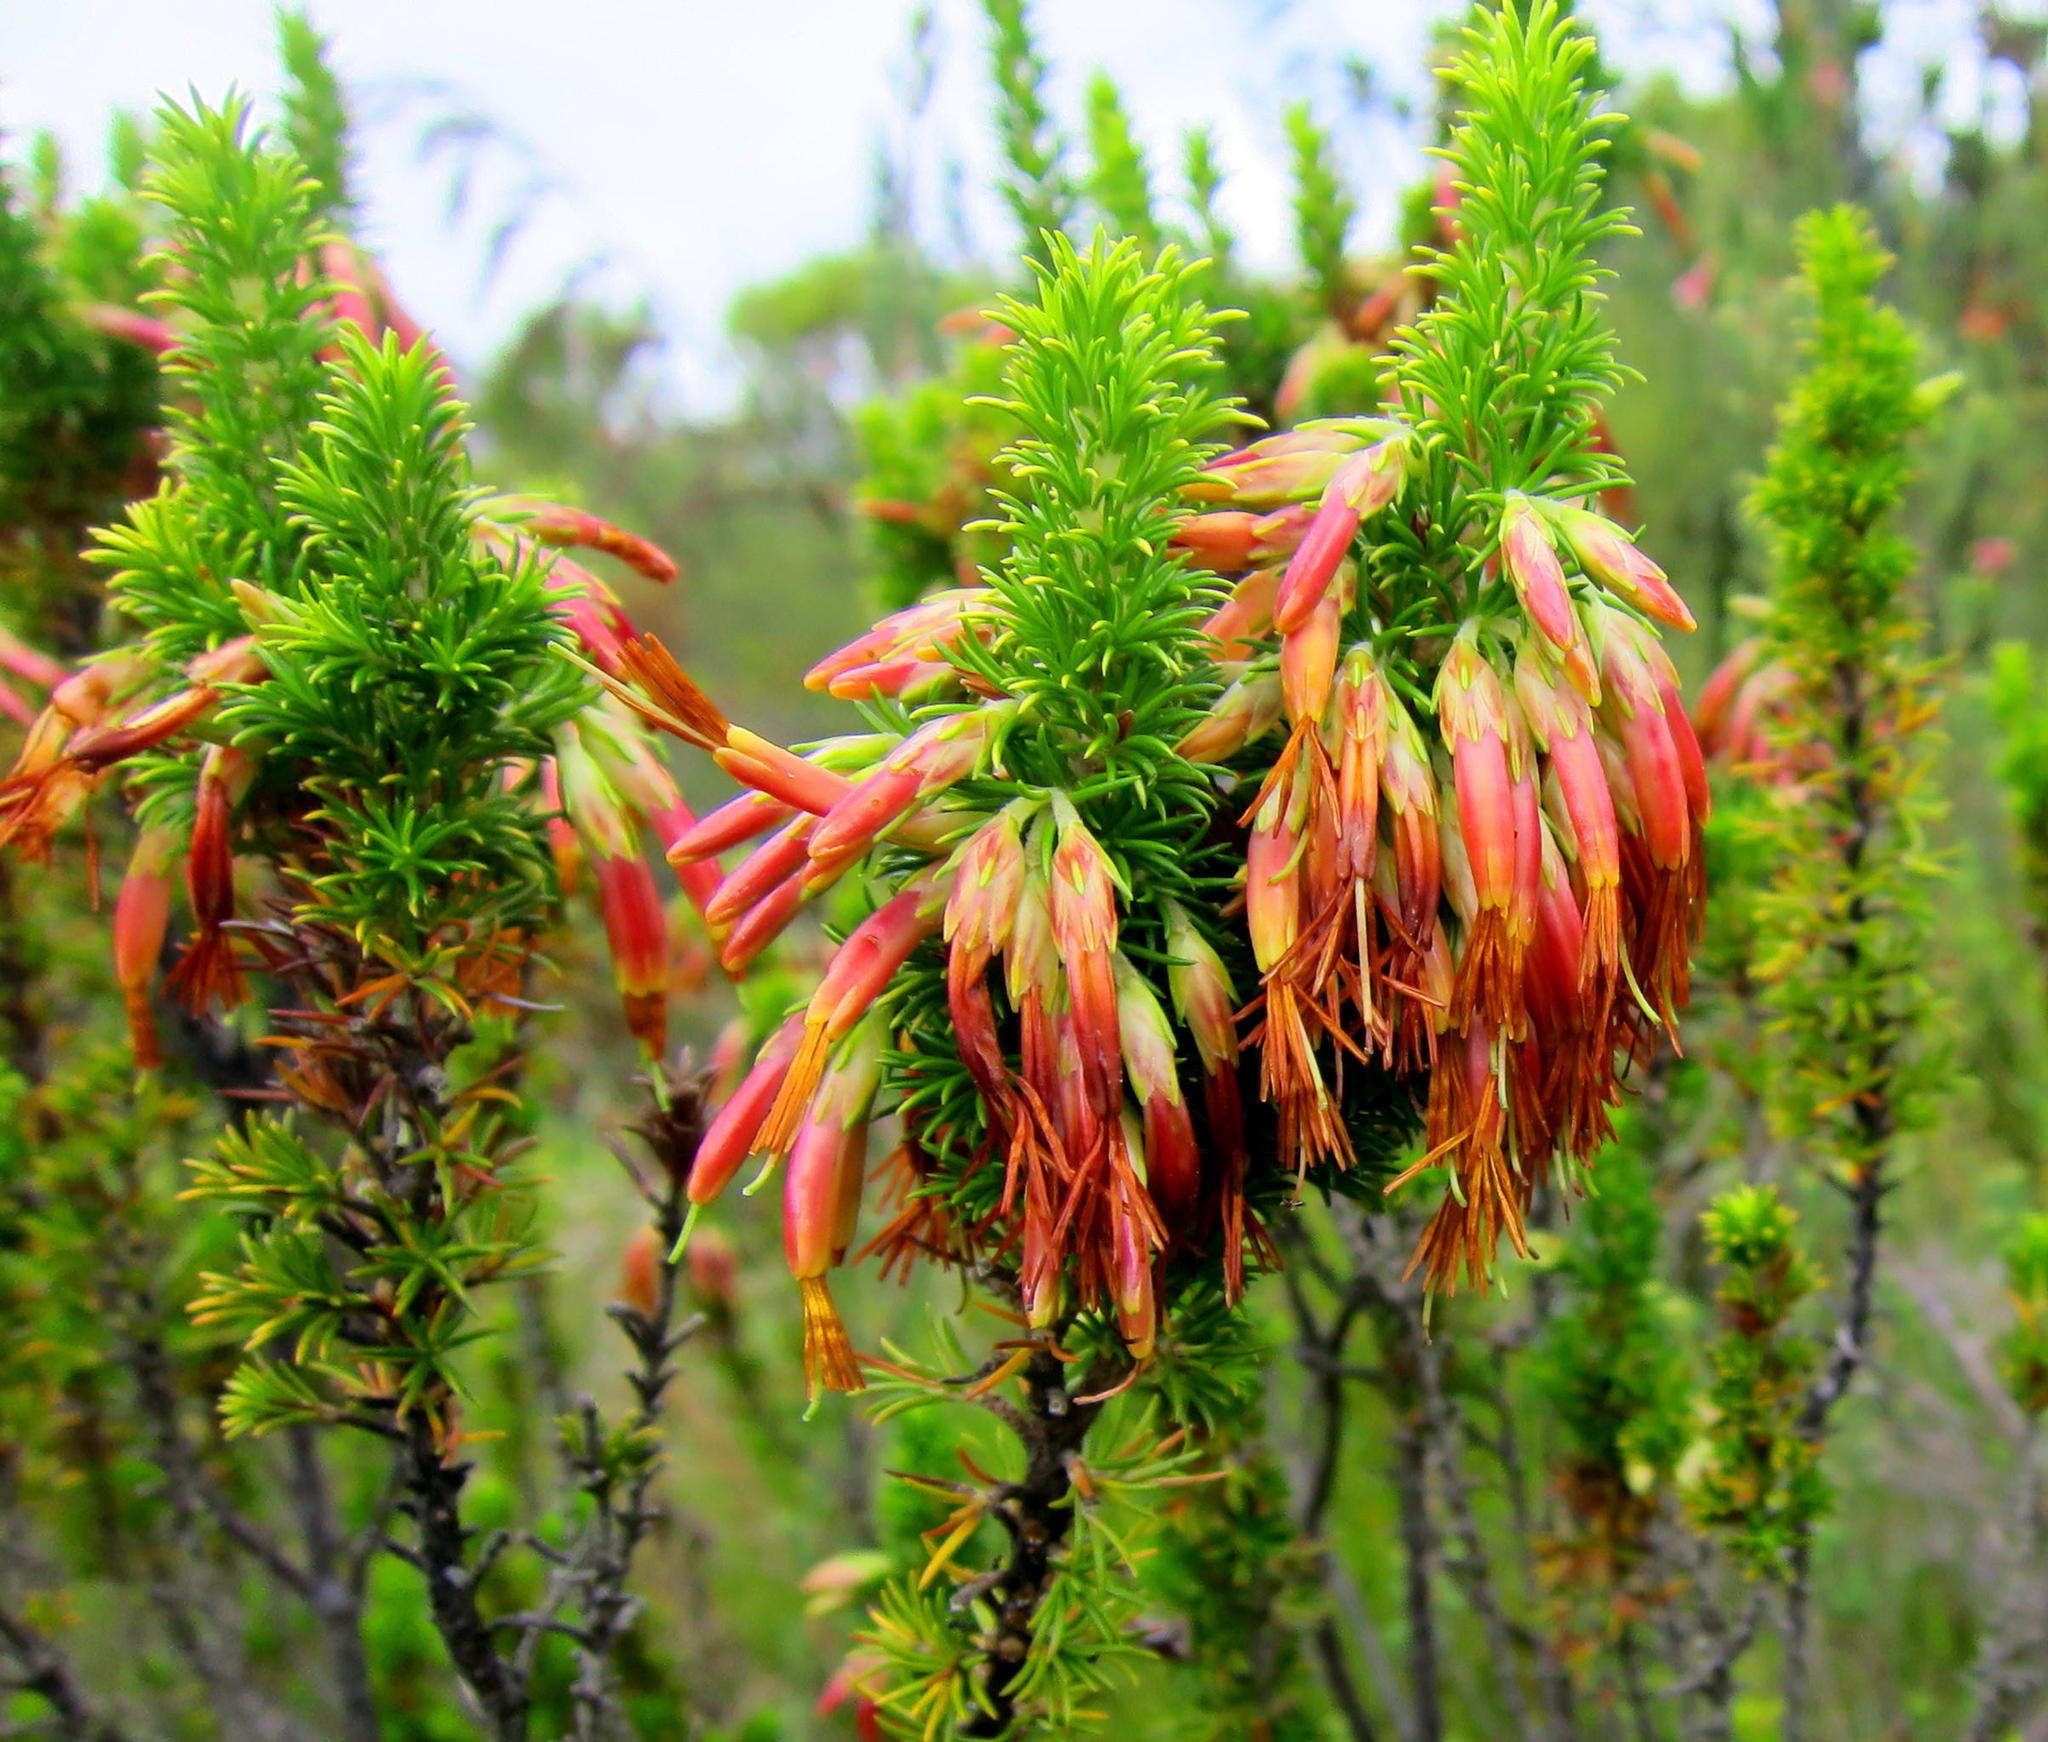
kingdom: Plantae
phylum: Tracheophyta
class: Magnoliopsida
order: Ericales
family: Ericaceae
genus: Erica
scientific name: Erica coccinea
